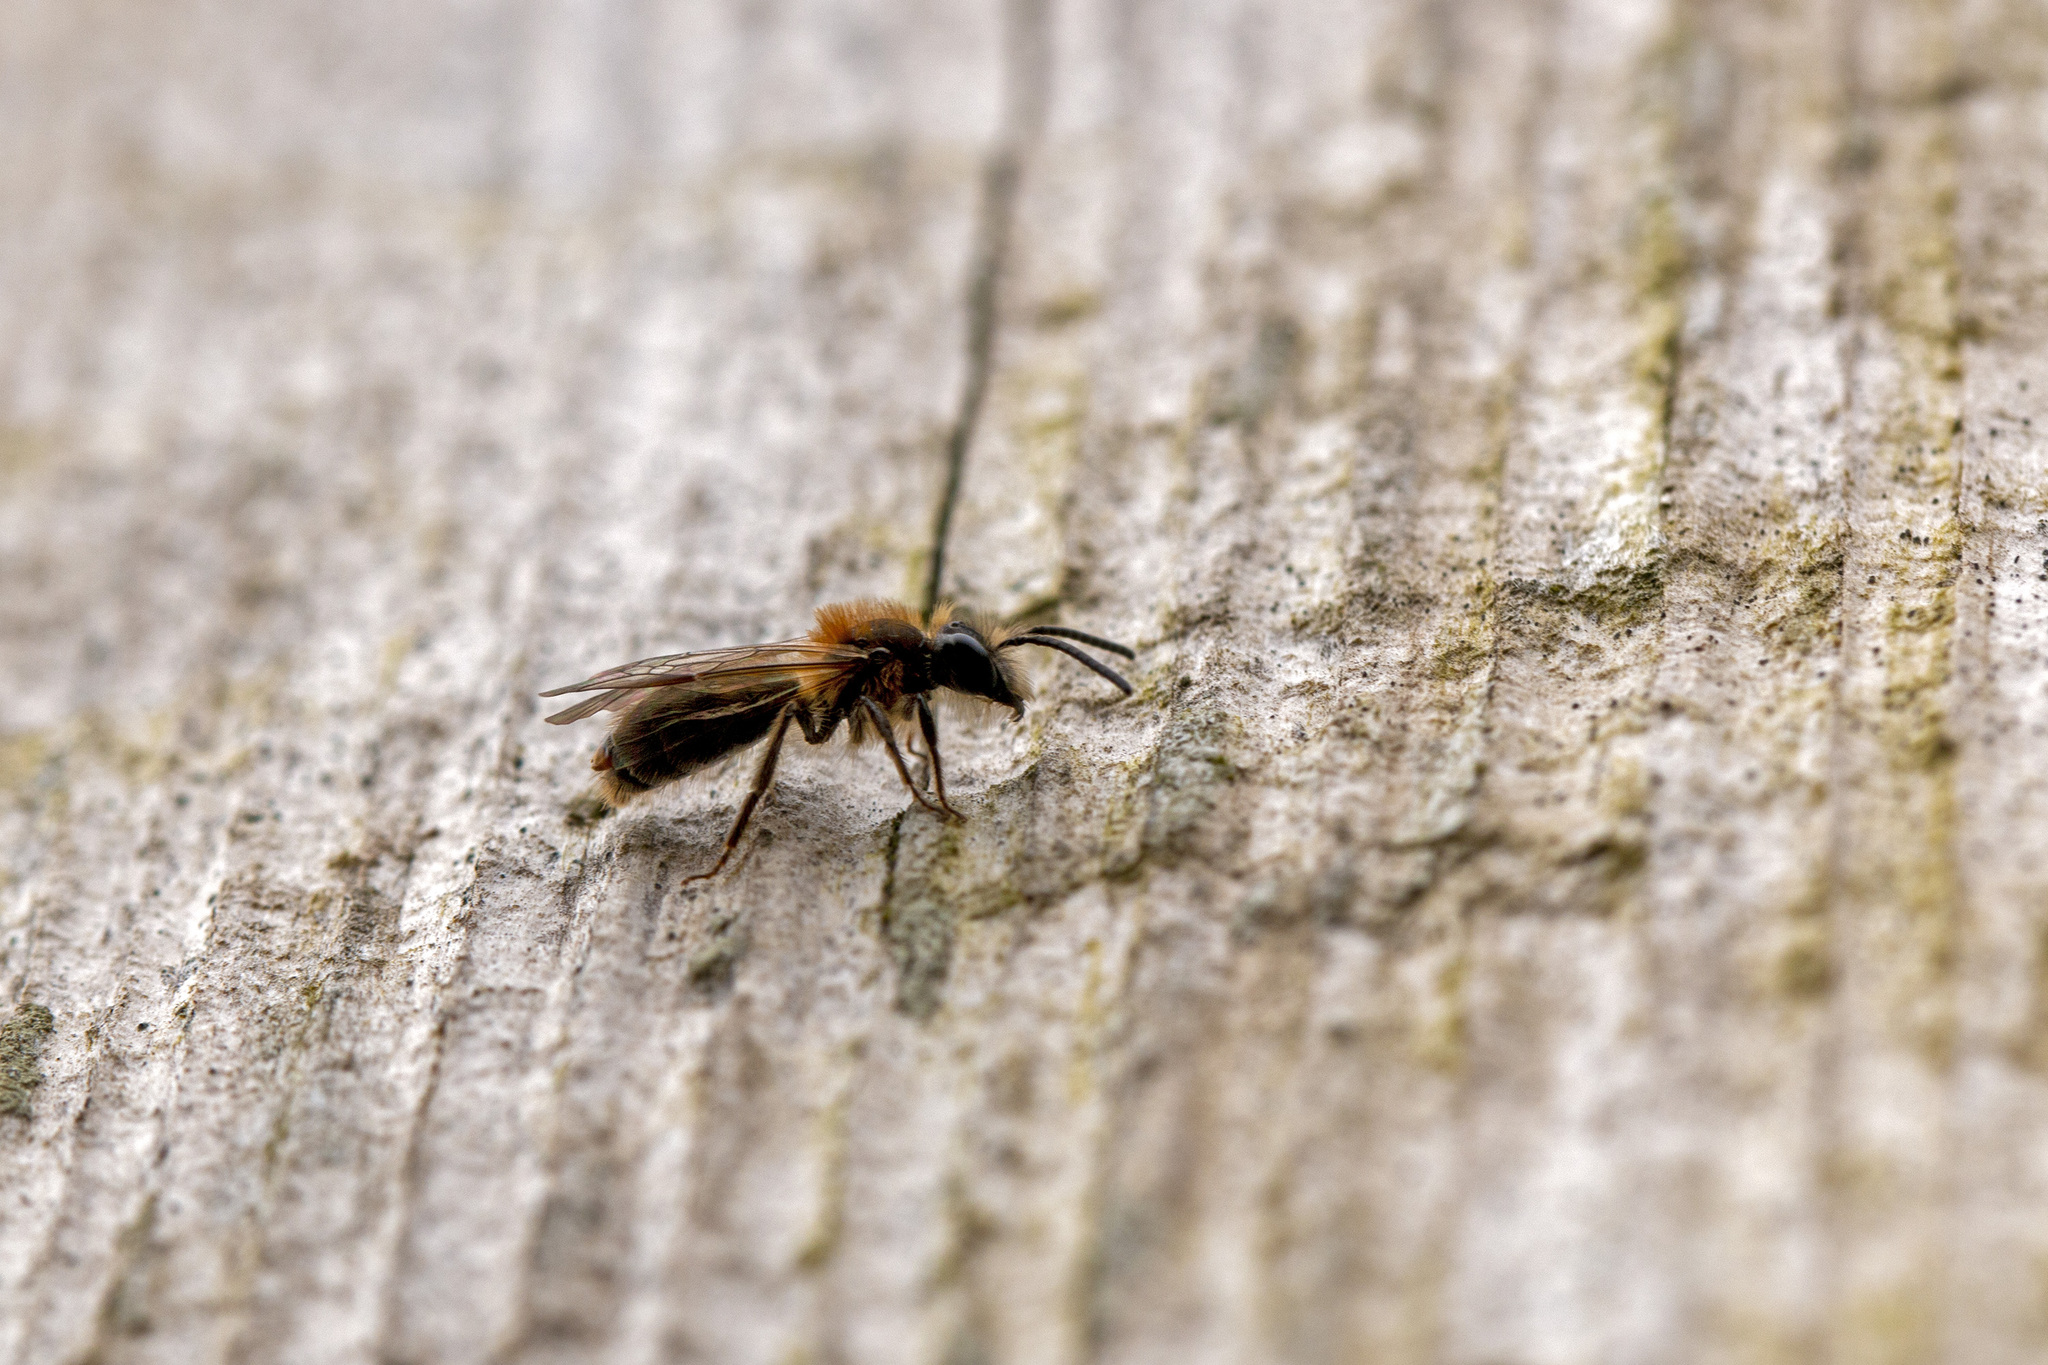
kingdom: Animalia
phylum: Arthropoda
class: Insecta
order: Hymenoptera
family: Andrenidae
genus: Andrena
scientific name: Andrena praecox
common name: Small sallow mining bee
